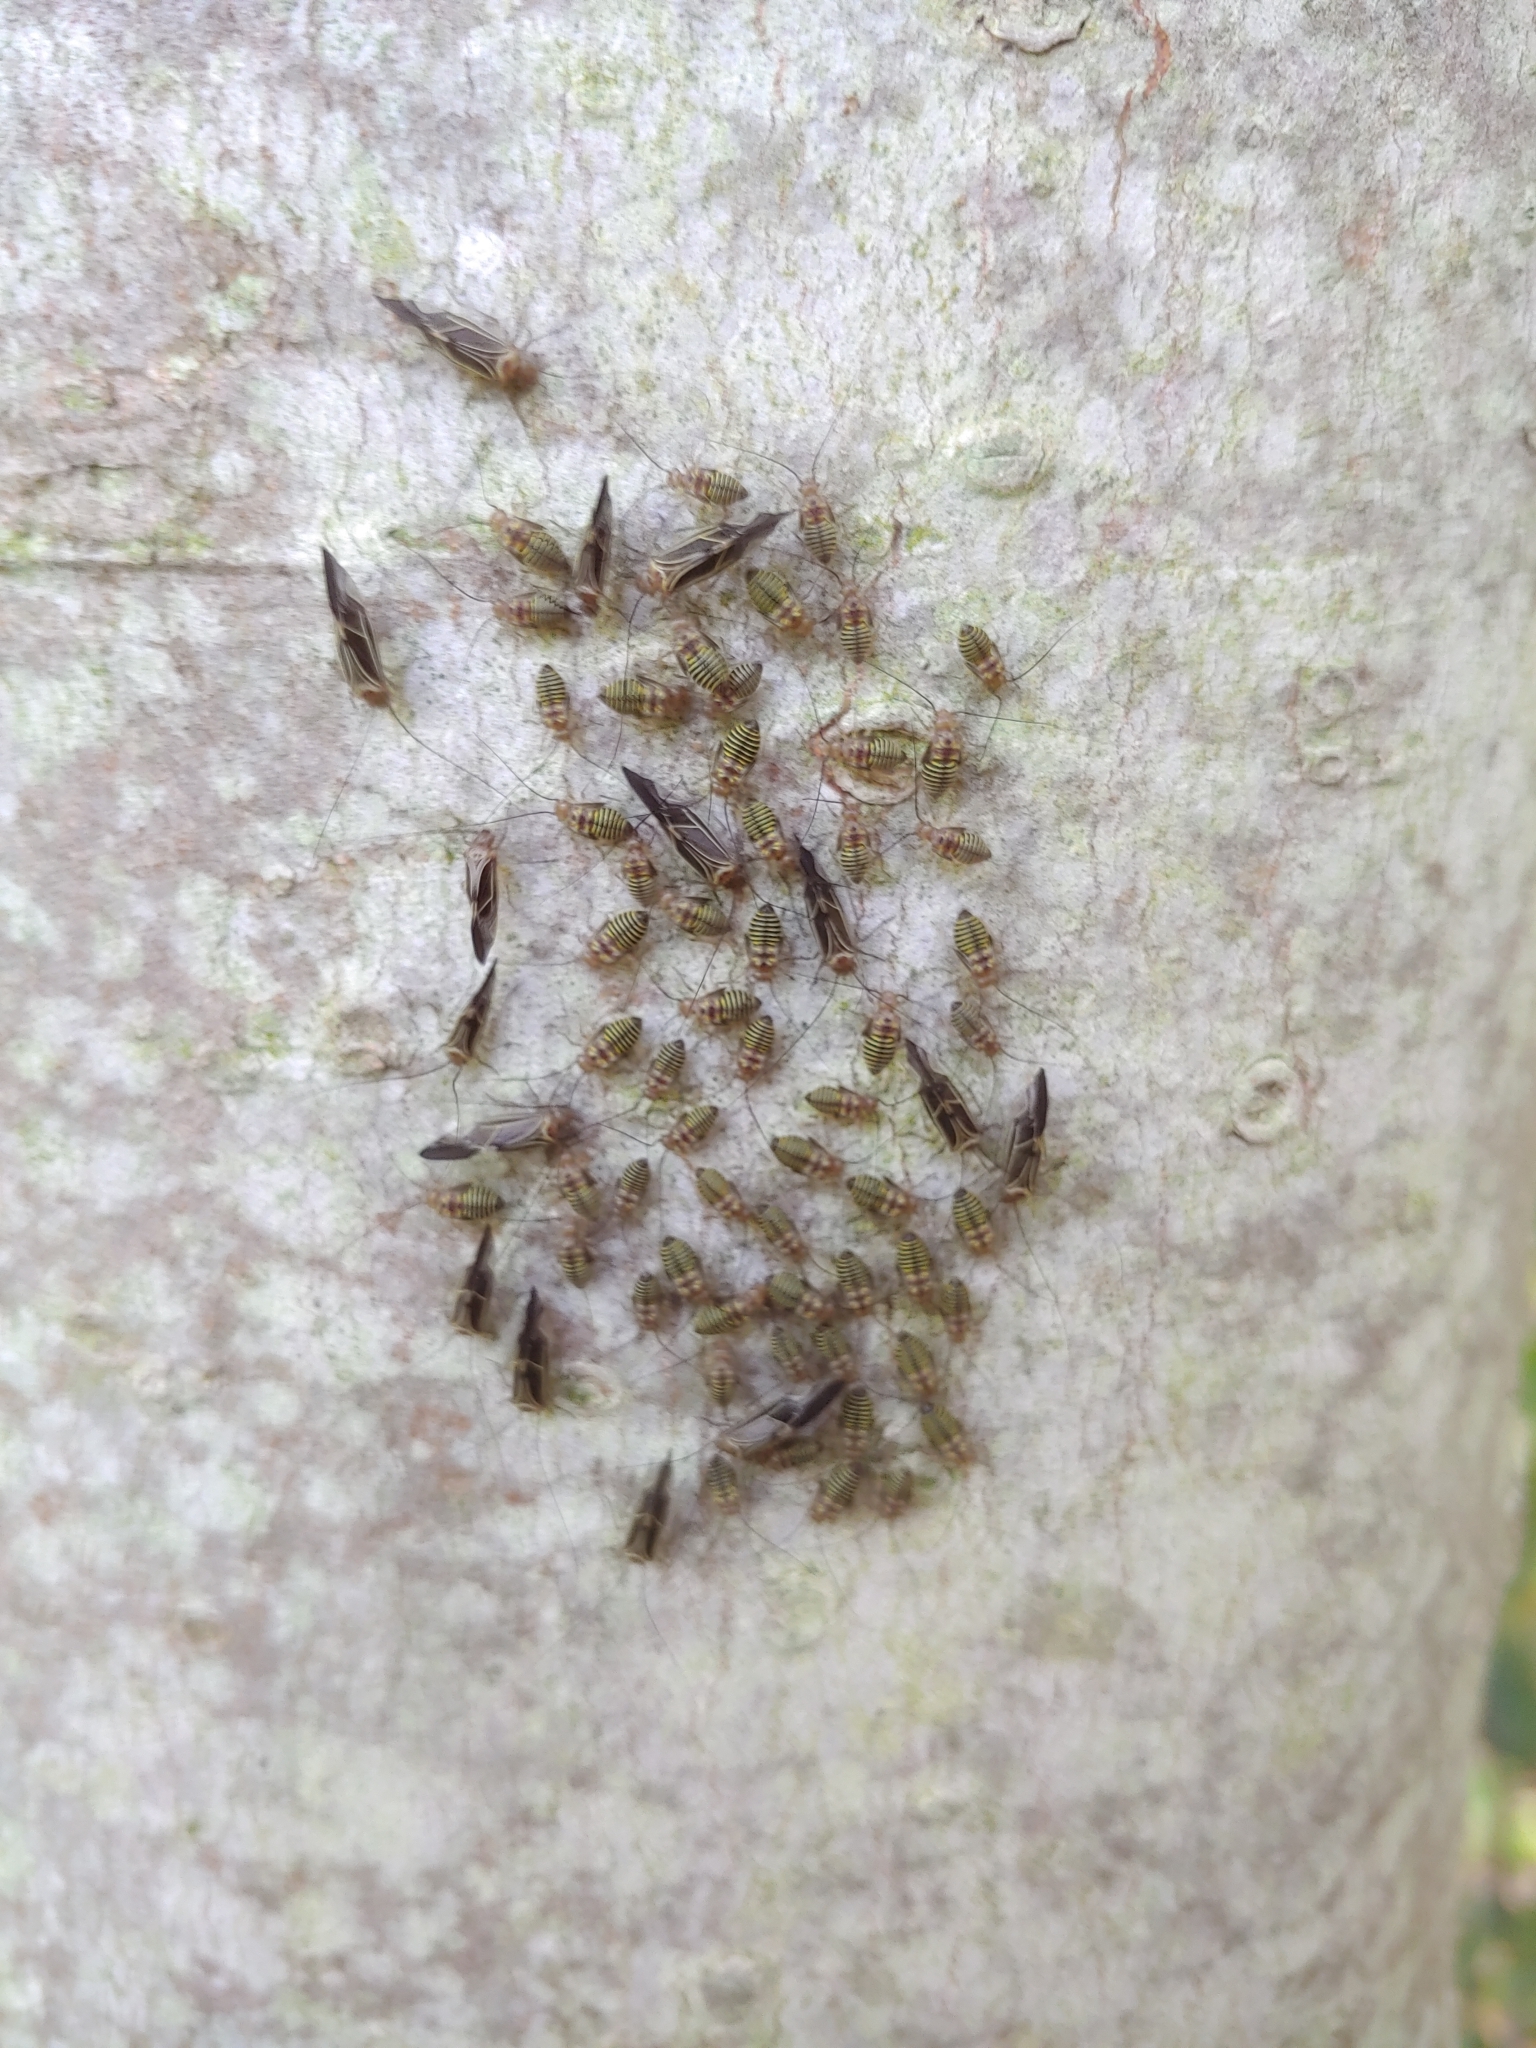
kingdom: Animalia
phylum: Arthropoda
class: Insecta
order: Psocodea
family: Psocidae
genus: Cerastipsocus
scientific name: Cerastipsocus venosus
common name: Tree cattle
